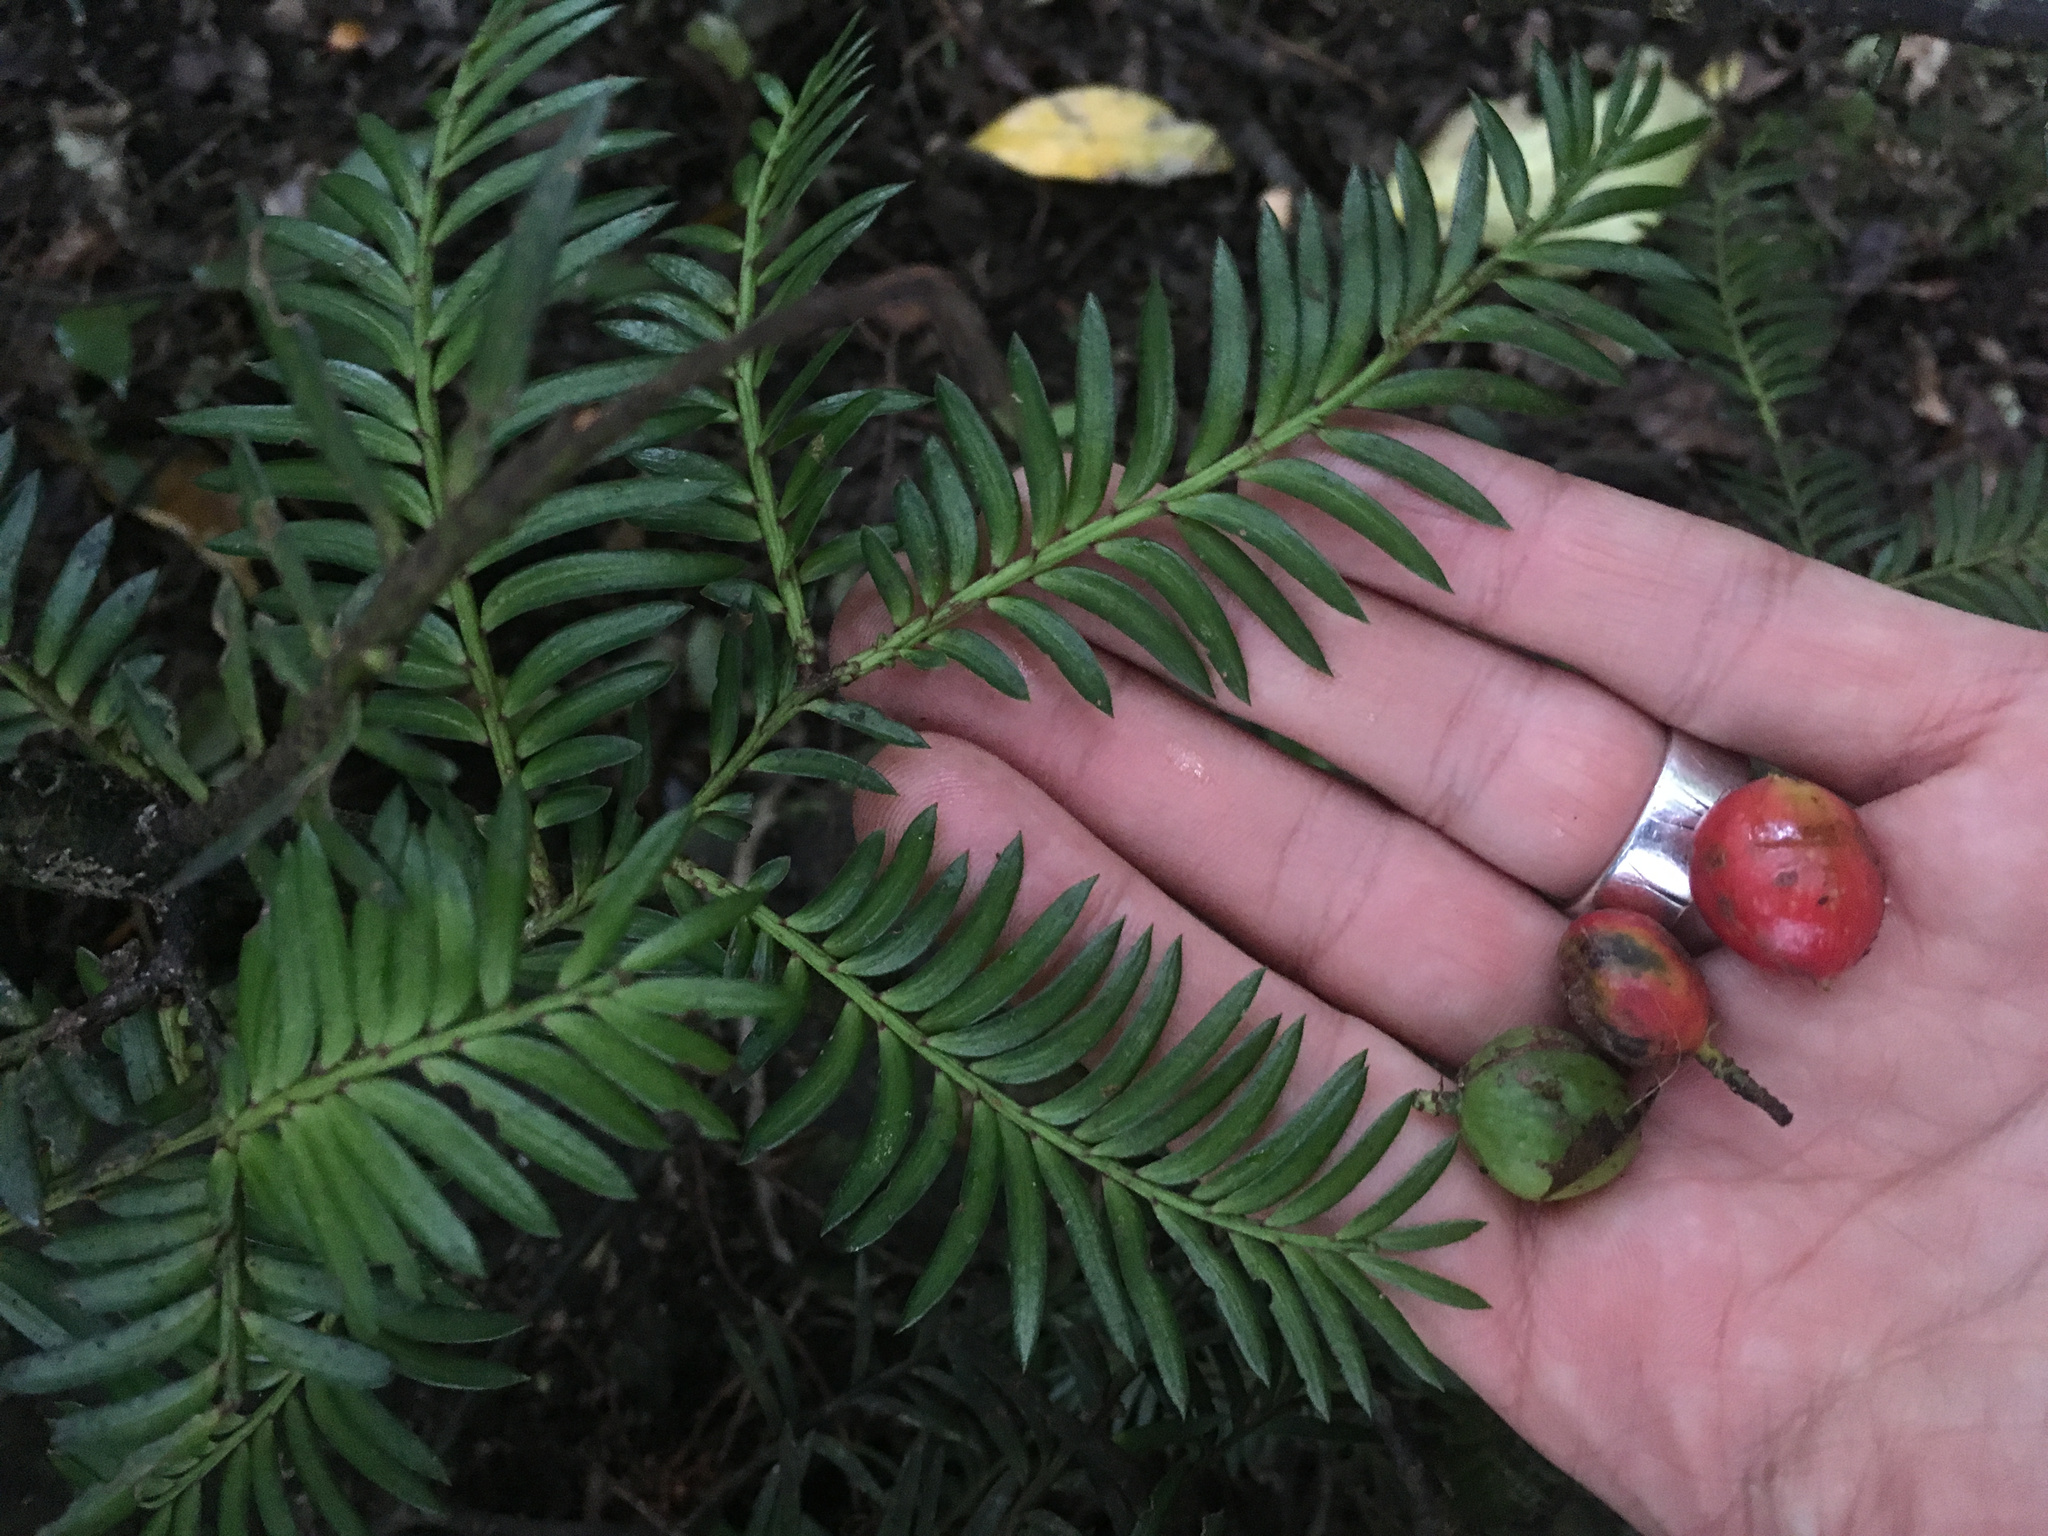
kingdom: Plantae
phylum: Tracheophyta
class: Pinopsida
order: Pinales
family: Podocarpaceae
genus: Prumnopitys
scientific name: Prumnopitys ferruginea
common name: Brown pine
